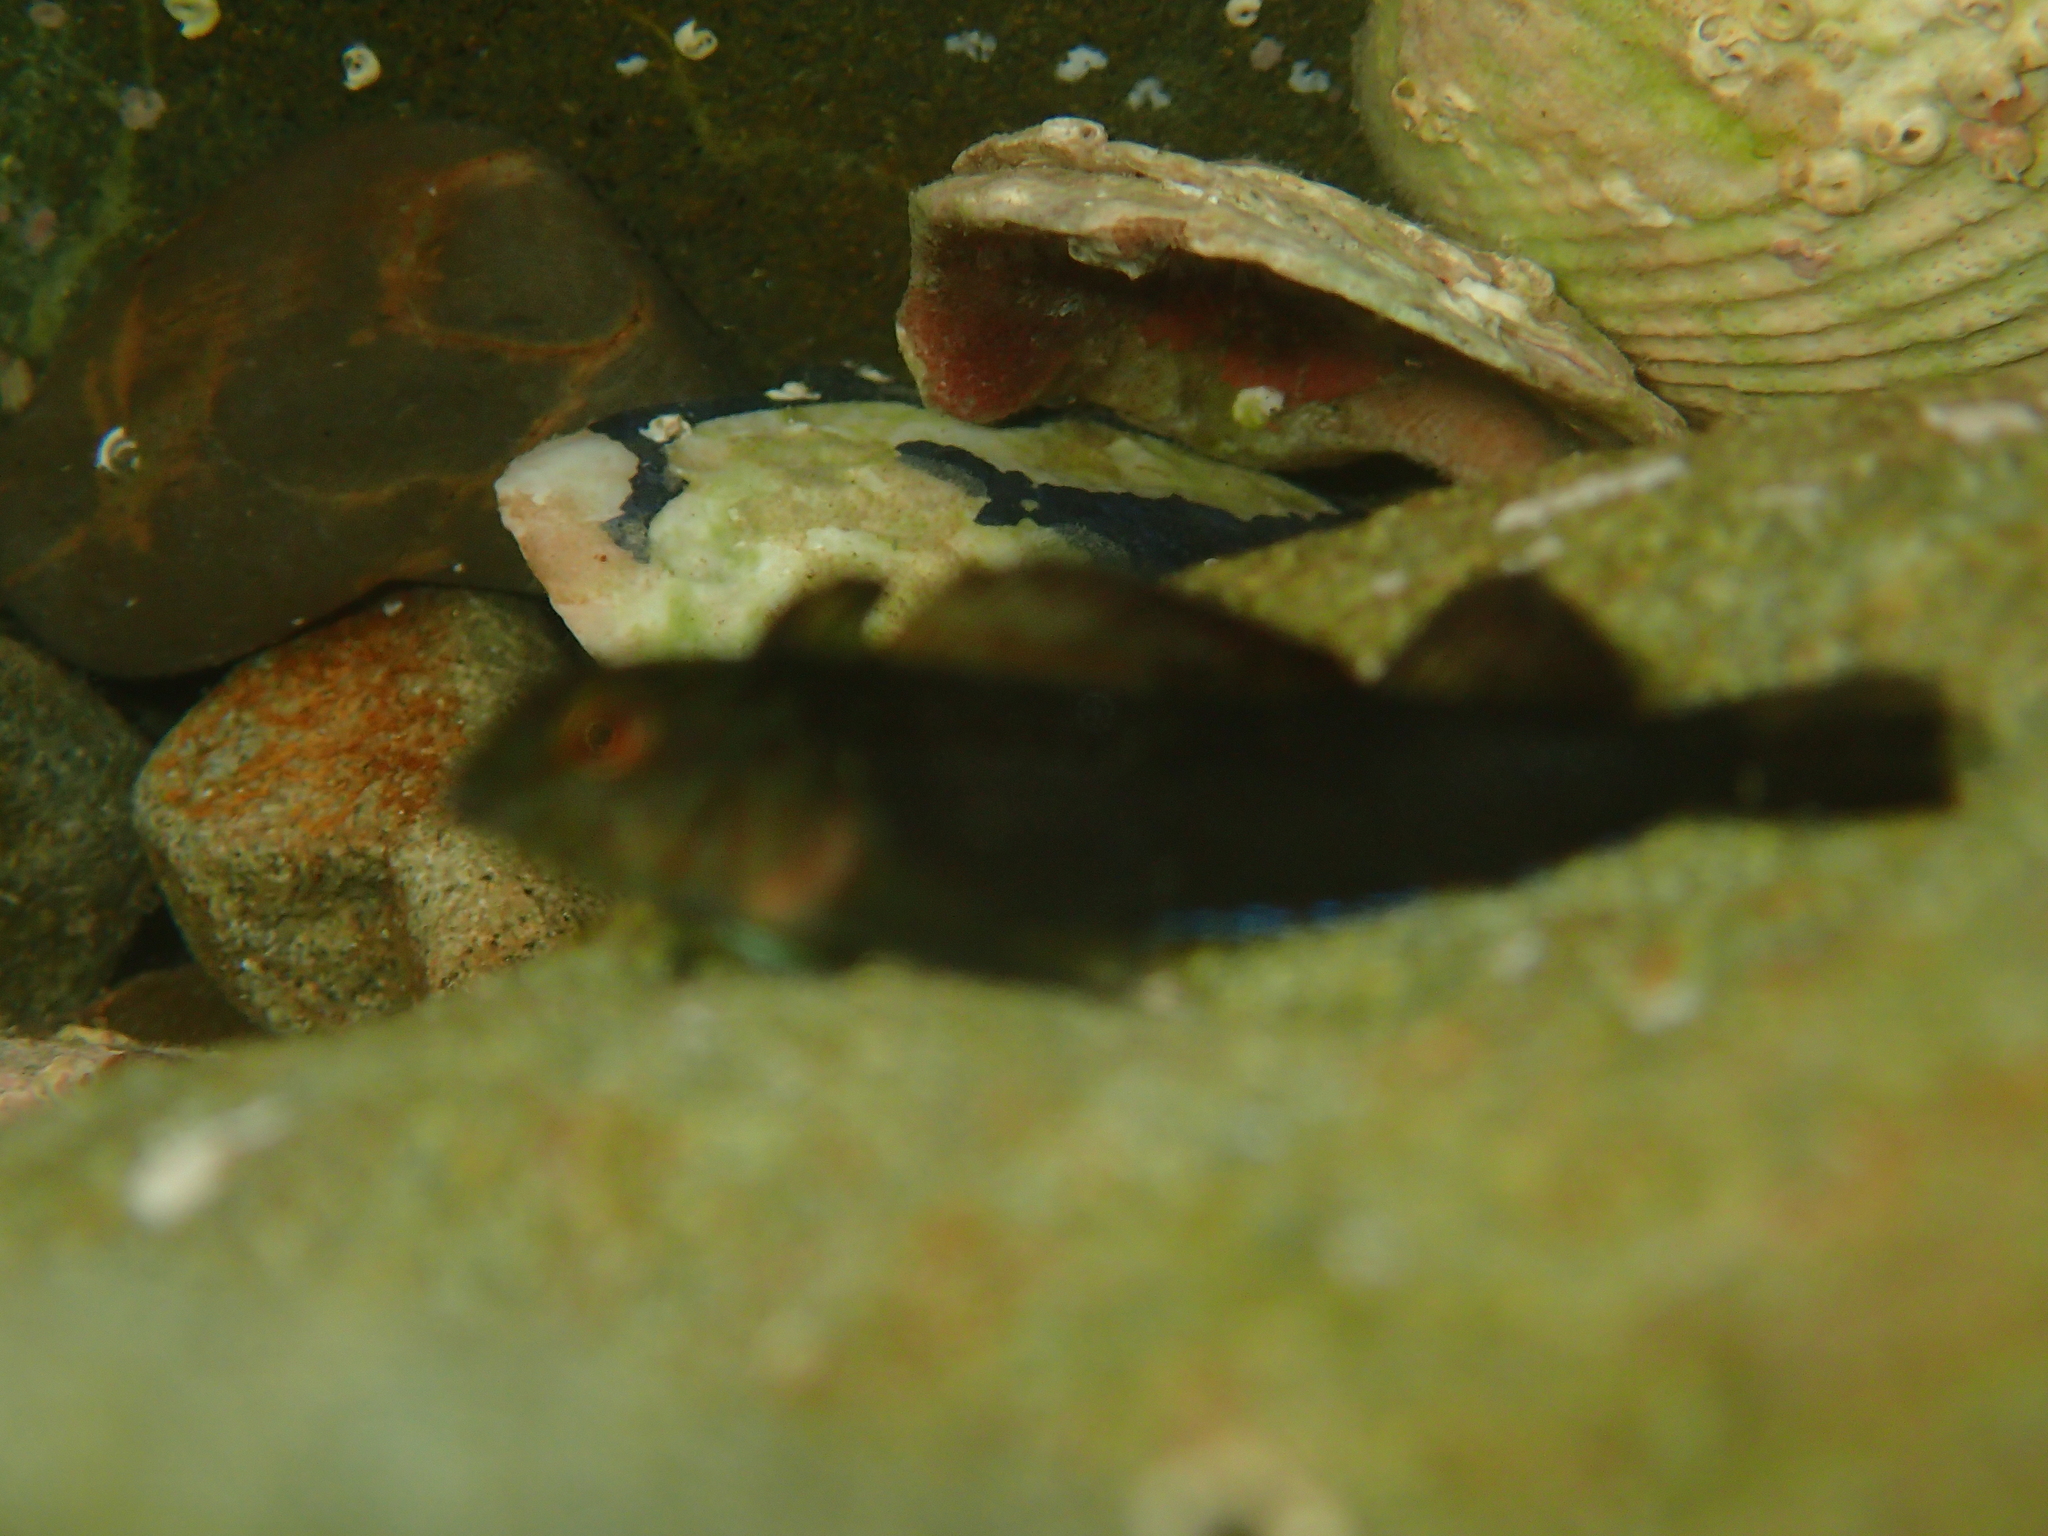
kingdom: Animalia
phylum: Chordata
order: Perciformes
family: Tripterygiidae
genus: Forsterygion
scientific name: Forsterygion lapillum
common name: Common triplefin
